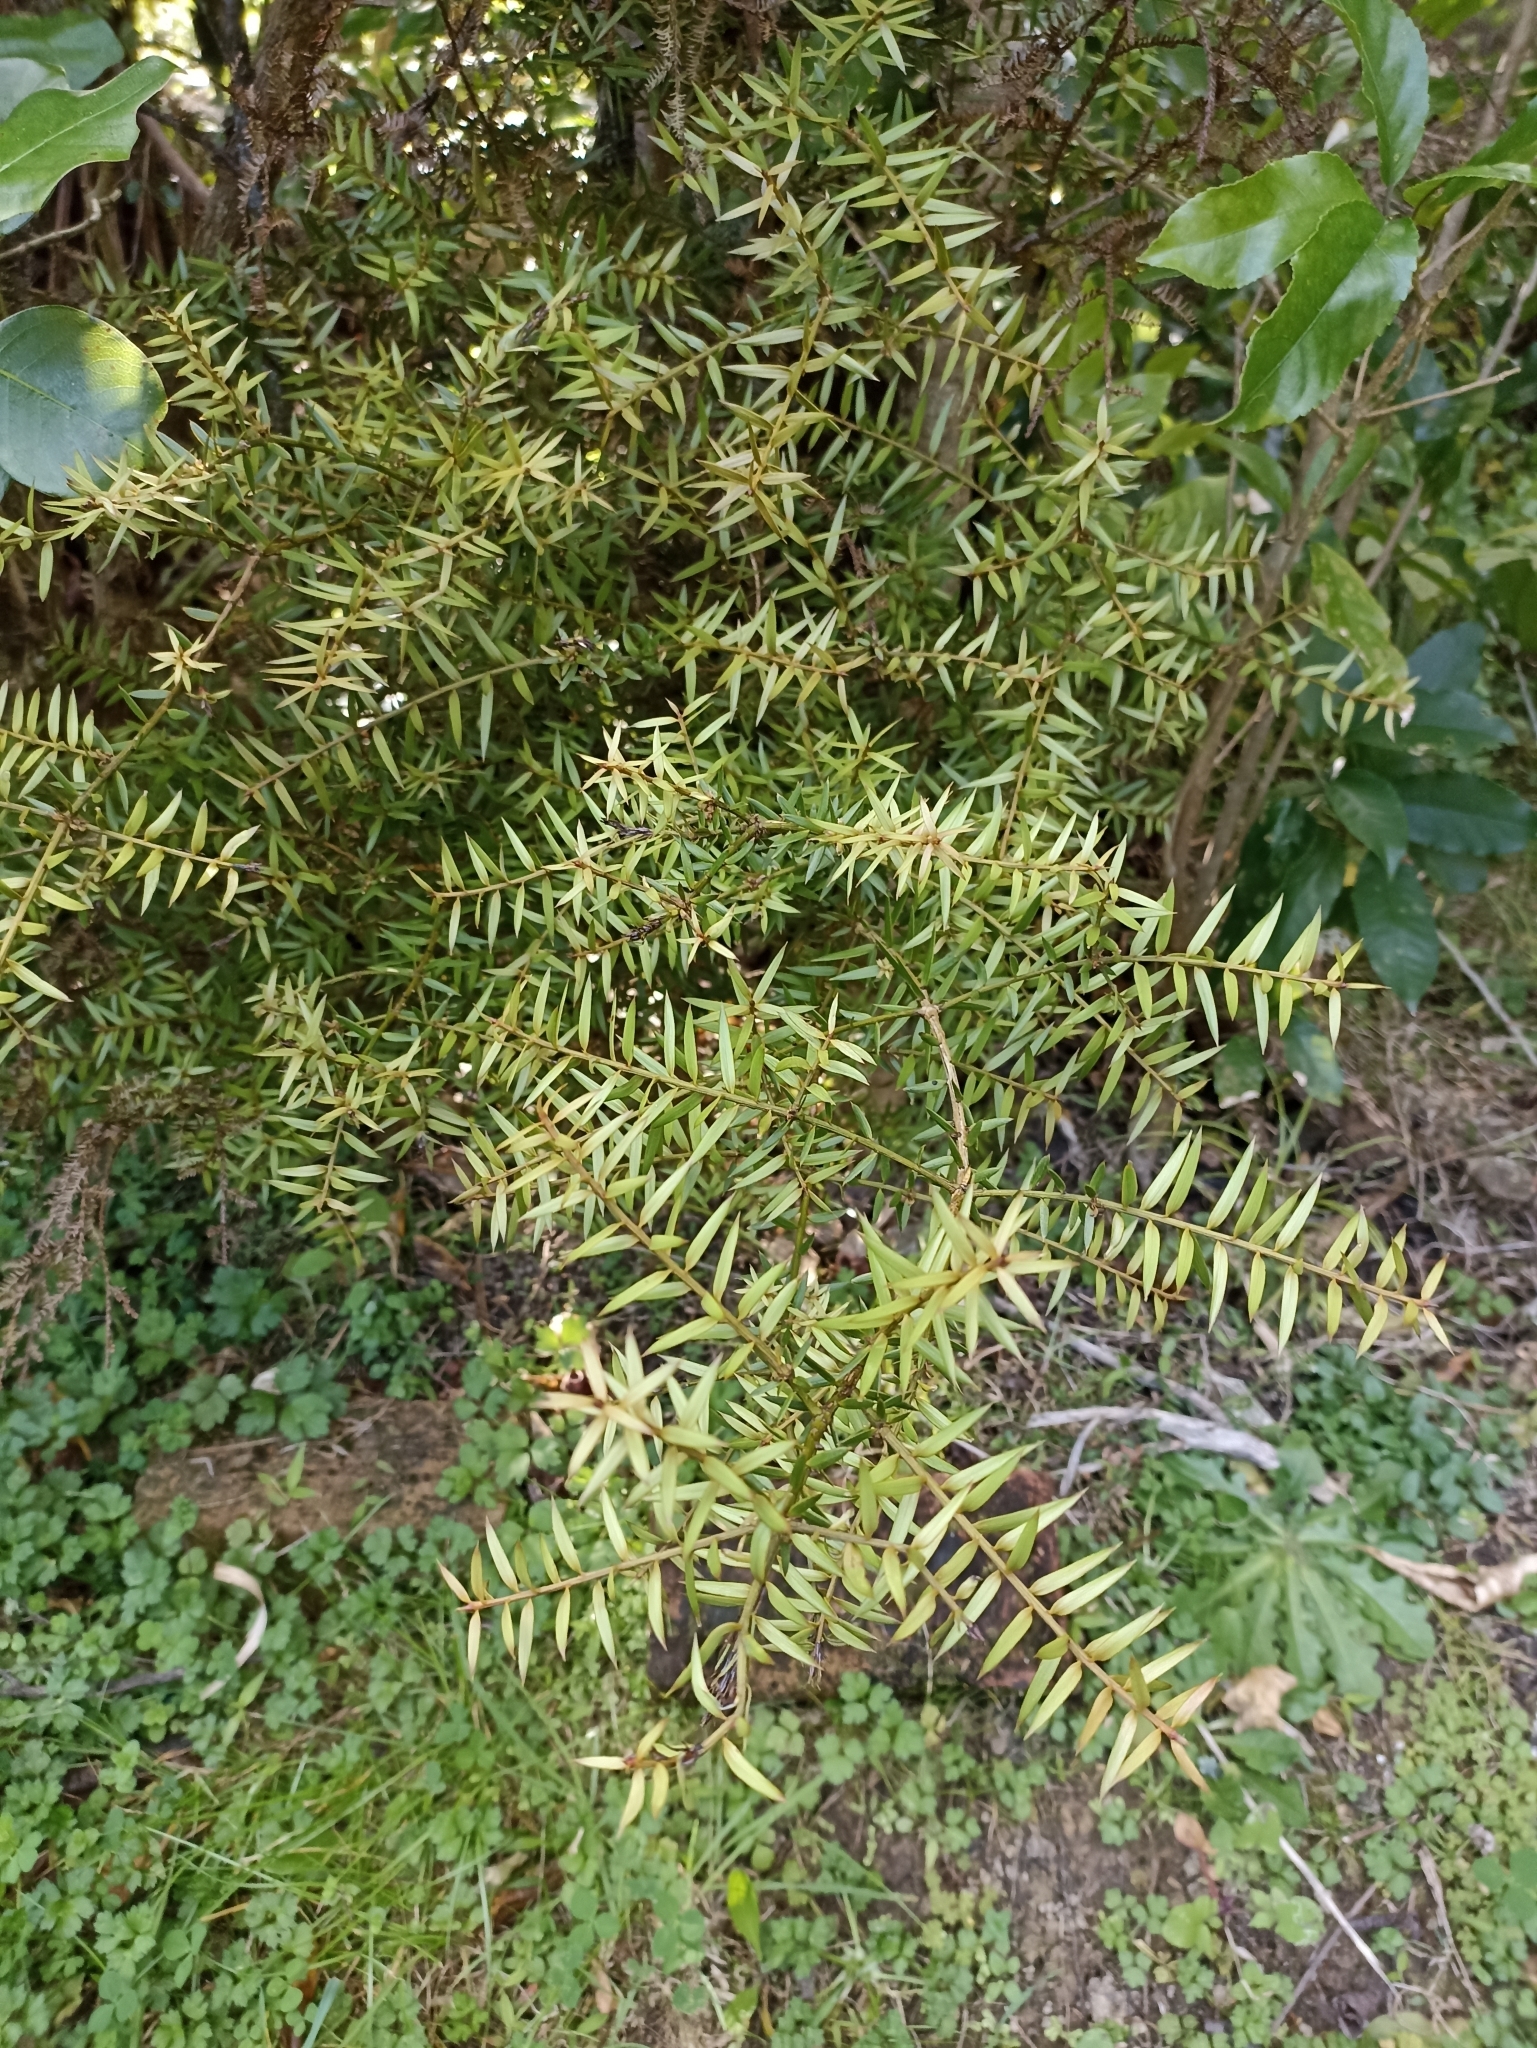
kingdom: Plantae
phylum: Tracheophyta
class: Pinopsida
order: Pinales
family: Podocarpaceae
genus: Podocarpus
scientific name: Podocarpus totara
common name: Totara
